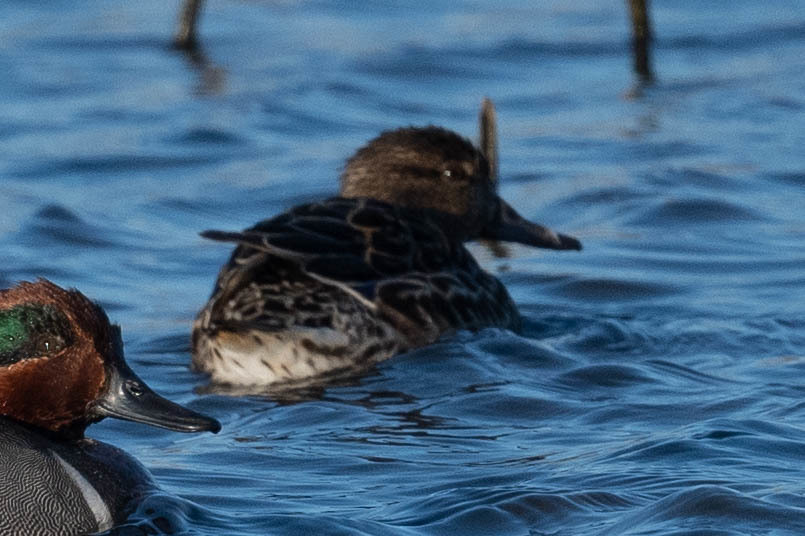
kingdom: Animalia
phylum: Chordata
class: Aves
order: Anseriformes
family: Anatidae
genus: Anas
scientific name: Anas crecca
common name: Eurasian teal
